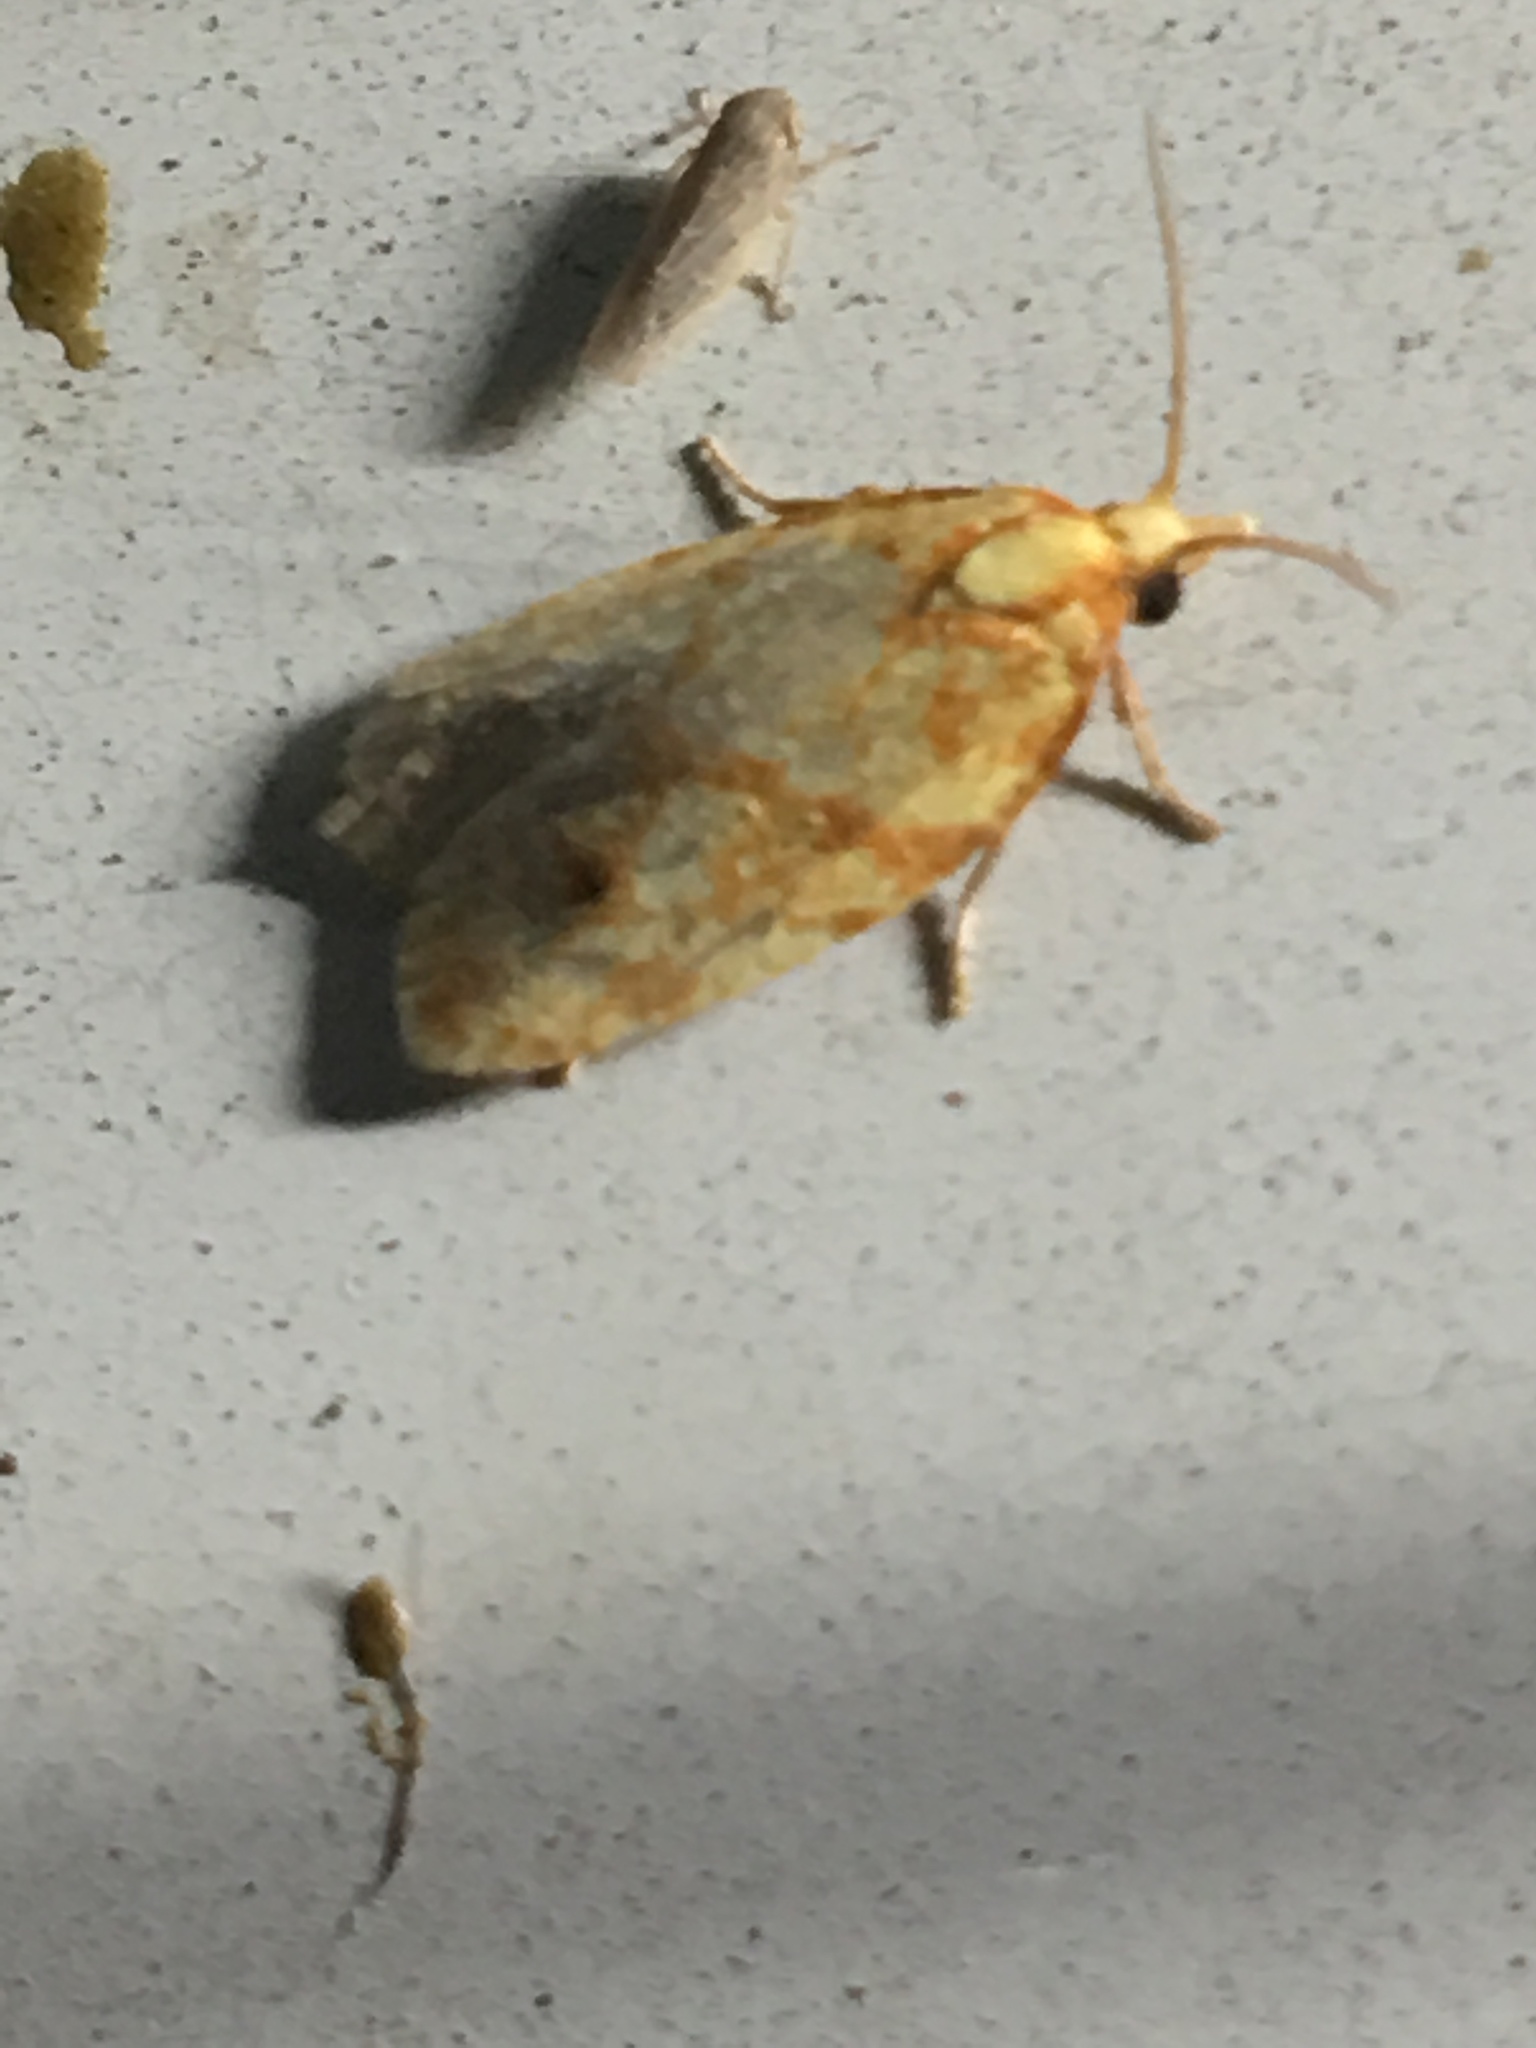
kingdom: Animalia
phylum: Arthropoda
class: Insecta
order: Lepidoptera
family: Tortricidae
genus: Sparganothis
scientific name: Sparganothis sulfureana
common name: Sparganothis fruitworm moth
